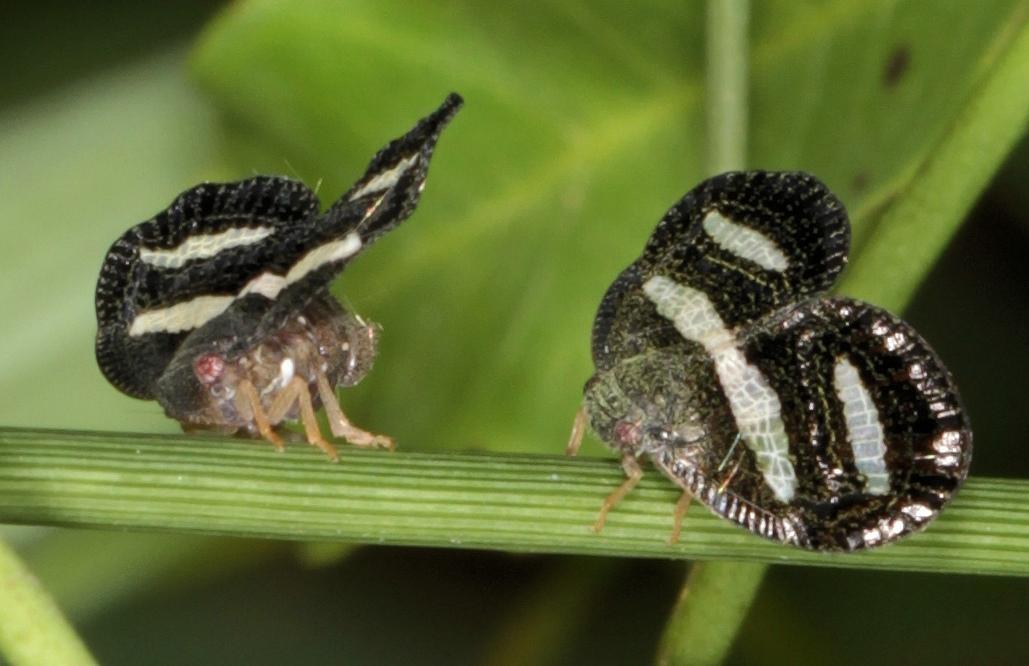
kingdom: Animalia
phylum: Arthropoda
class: Insecta
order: Hemiptera
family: Ricaniidae
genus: Mulvia
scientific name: Mulvia albizona
